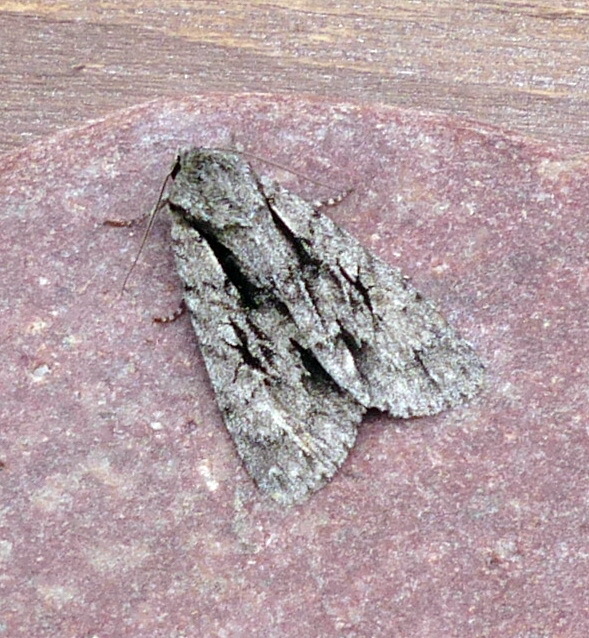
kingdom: Animalia
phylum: Arthropoda
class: Insecta
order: Lepidoptera
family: Noctuidae
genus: Acronicta
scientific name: Acronicta hasta
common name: Cherry dagger
